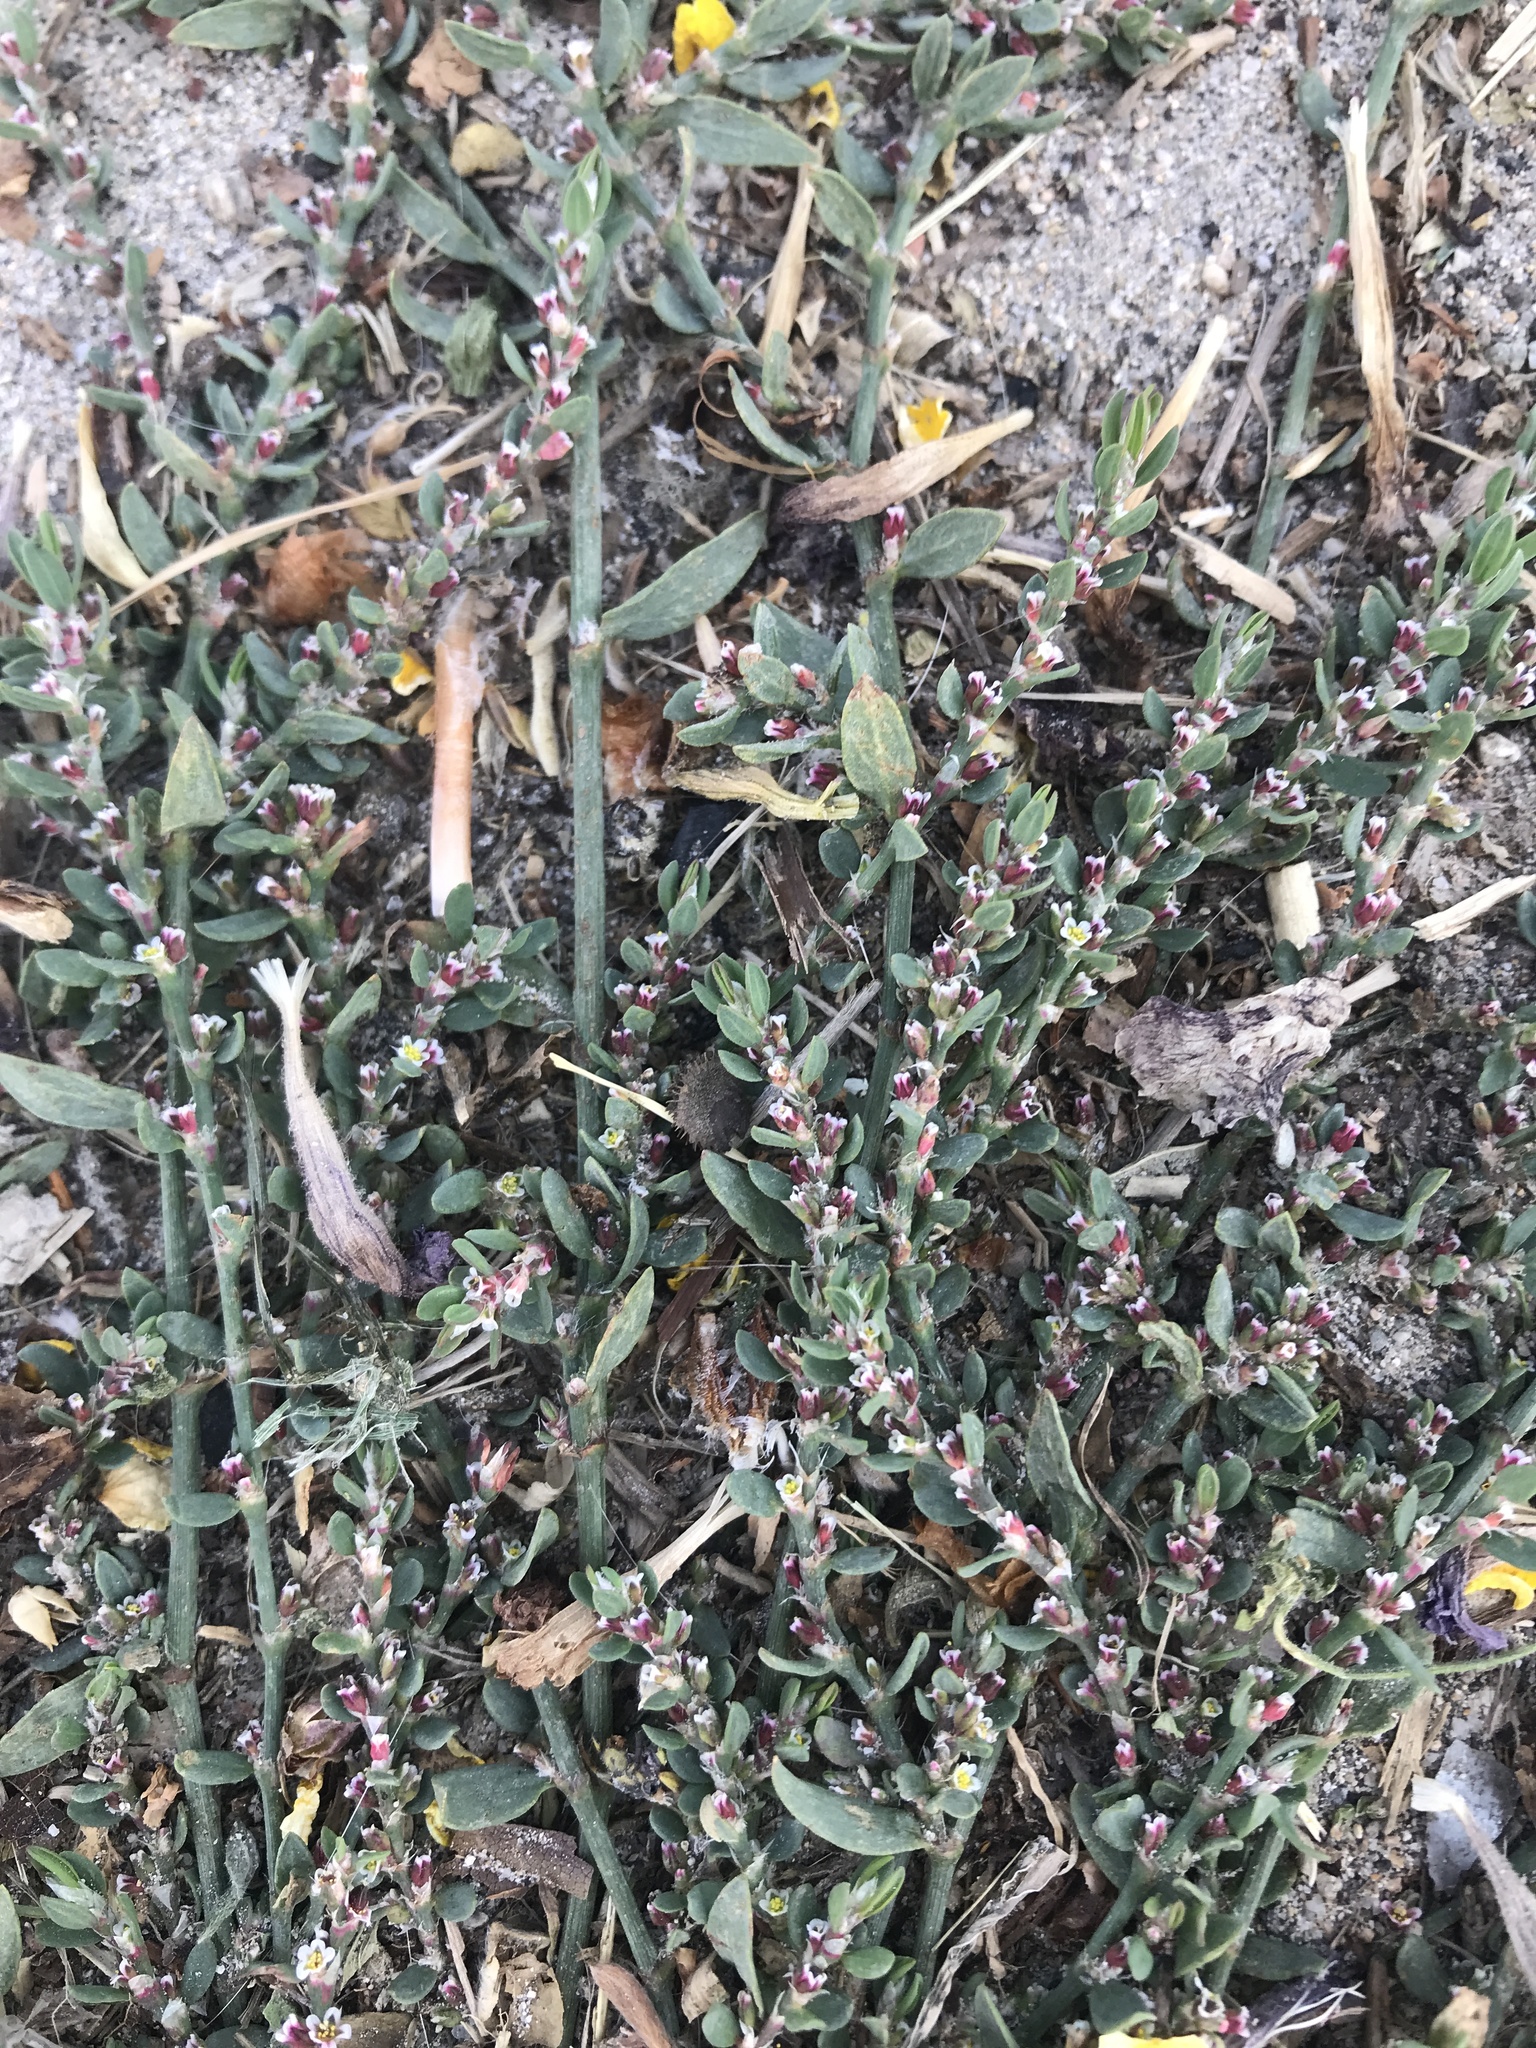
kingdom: Plantae
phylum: Tracheophyta
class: Magnoliopsida
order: Caryophyllales
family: Polygonaceae
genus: Polygonum
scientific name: Polygonum aviculare
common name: Prostrate knotweed
